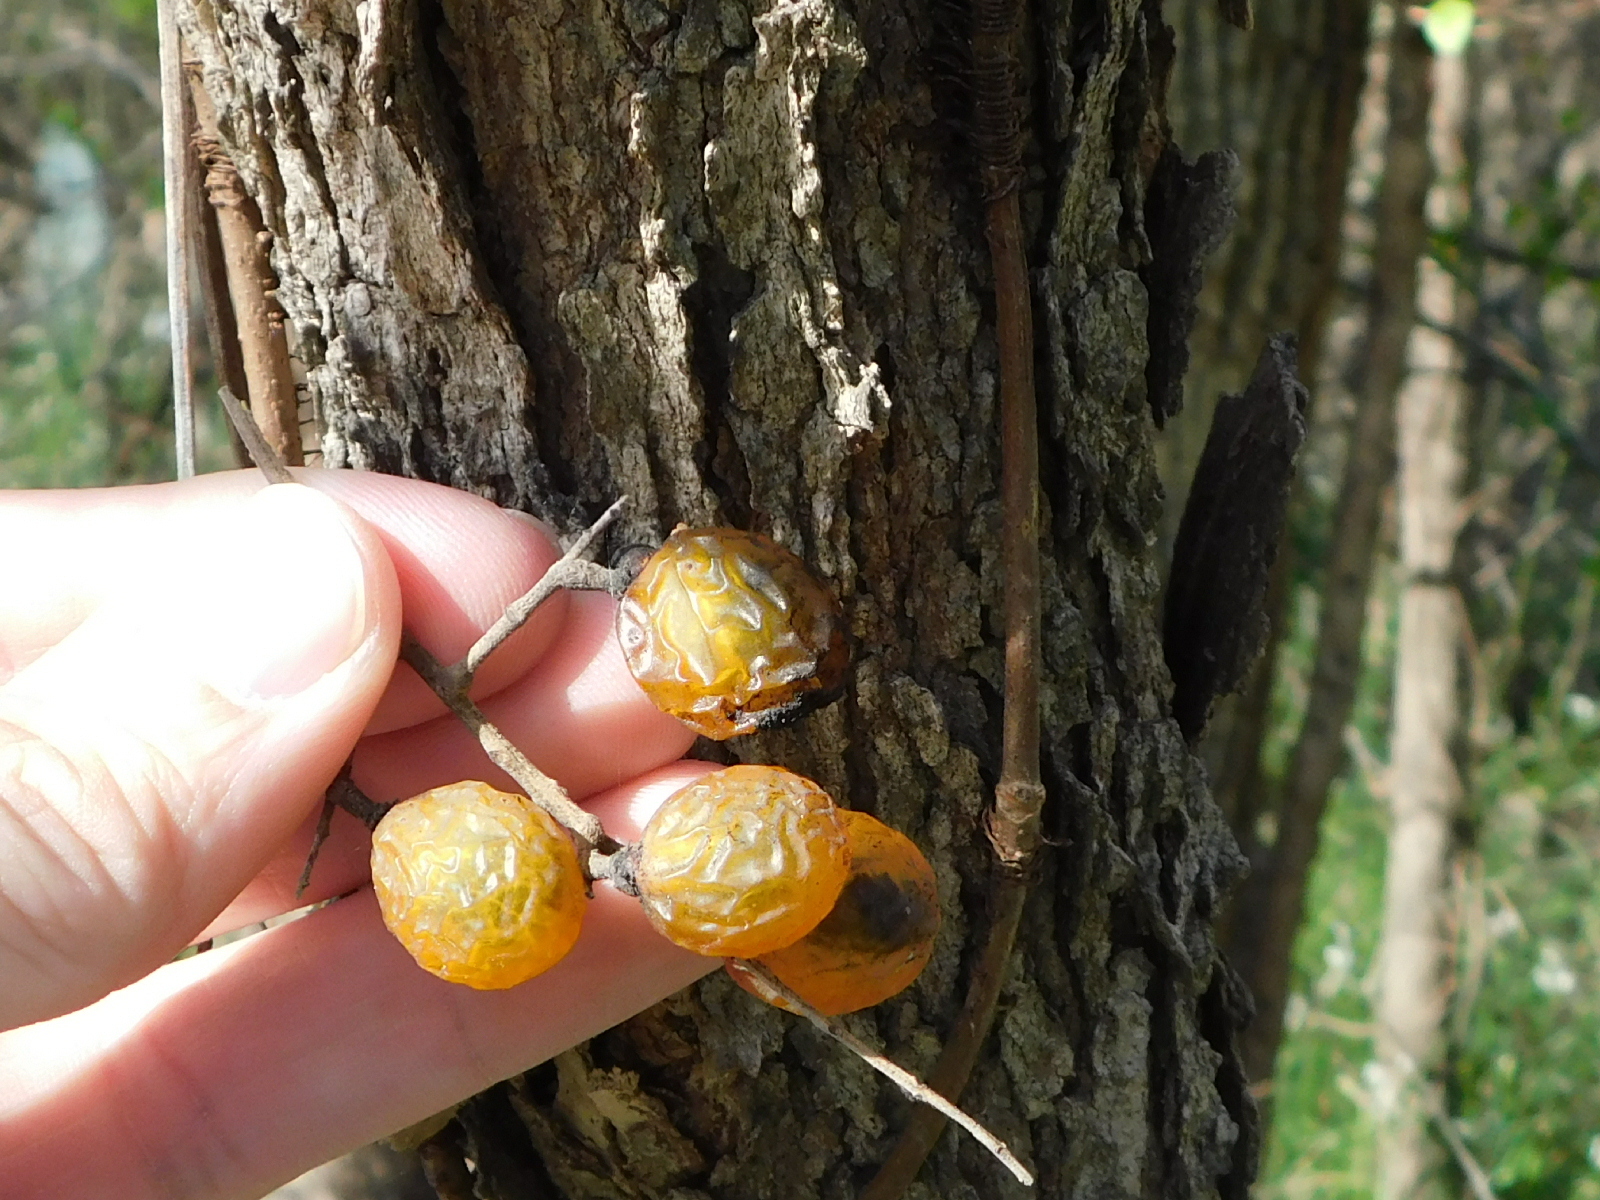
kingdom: Plantae
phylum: Tracheophyta
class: Magnoliopsida
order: Sapindales
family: Sapindaceae
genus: Sapindus
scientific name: Sapindus drummondii
